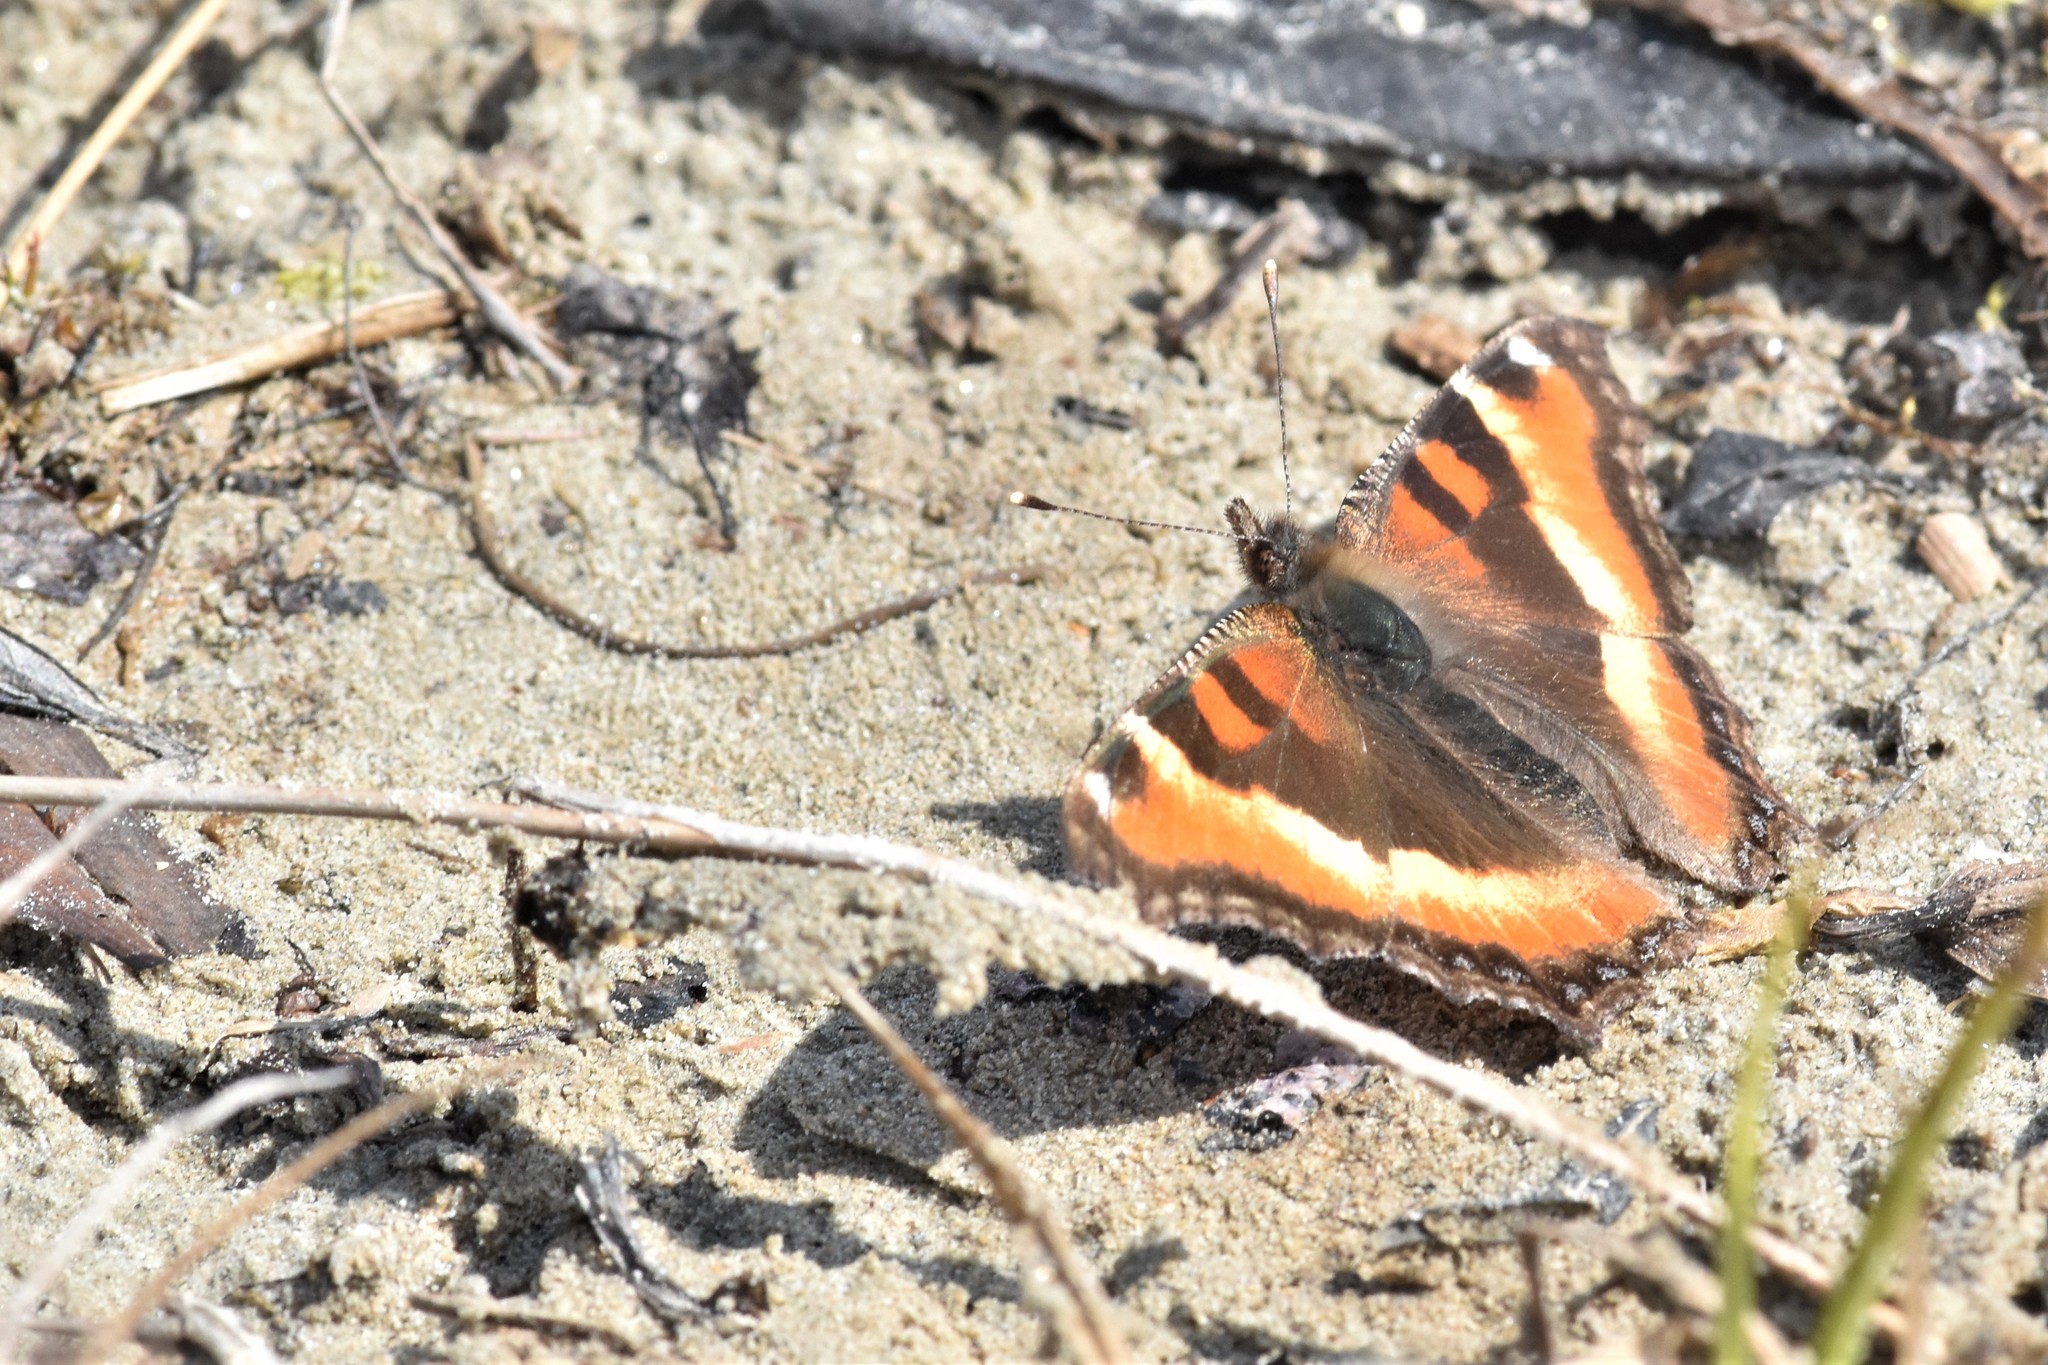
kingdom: Animalia
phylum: Arthropoda
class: Insecta
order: Lepidoptera
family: Nymphalidae
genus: Aglais
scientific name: Aglais milberti
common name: Milbert's tortoiseshell
